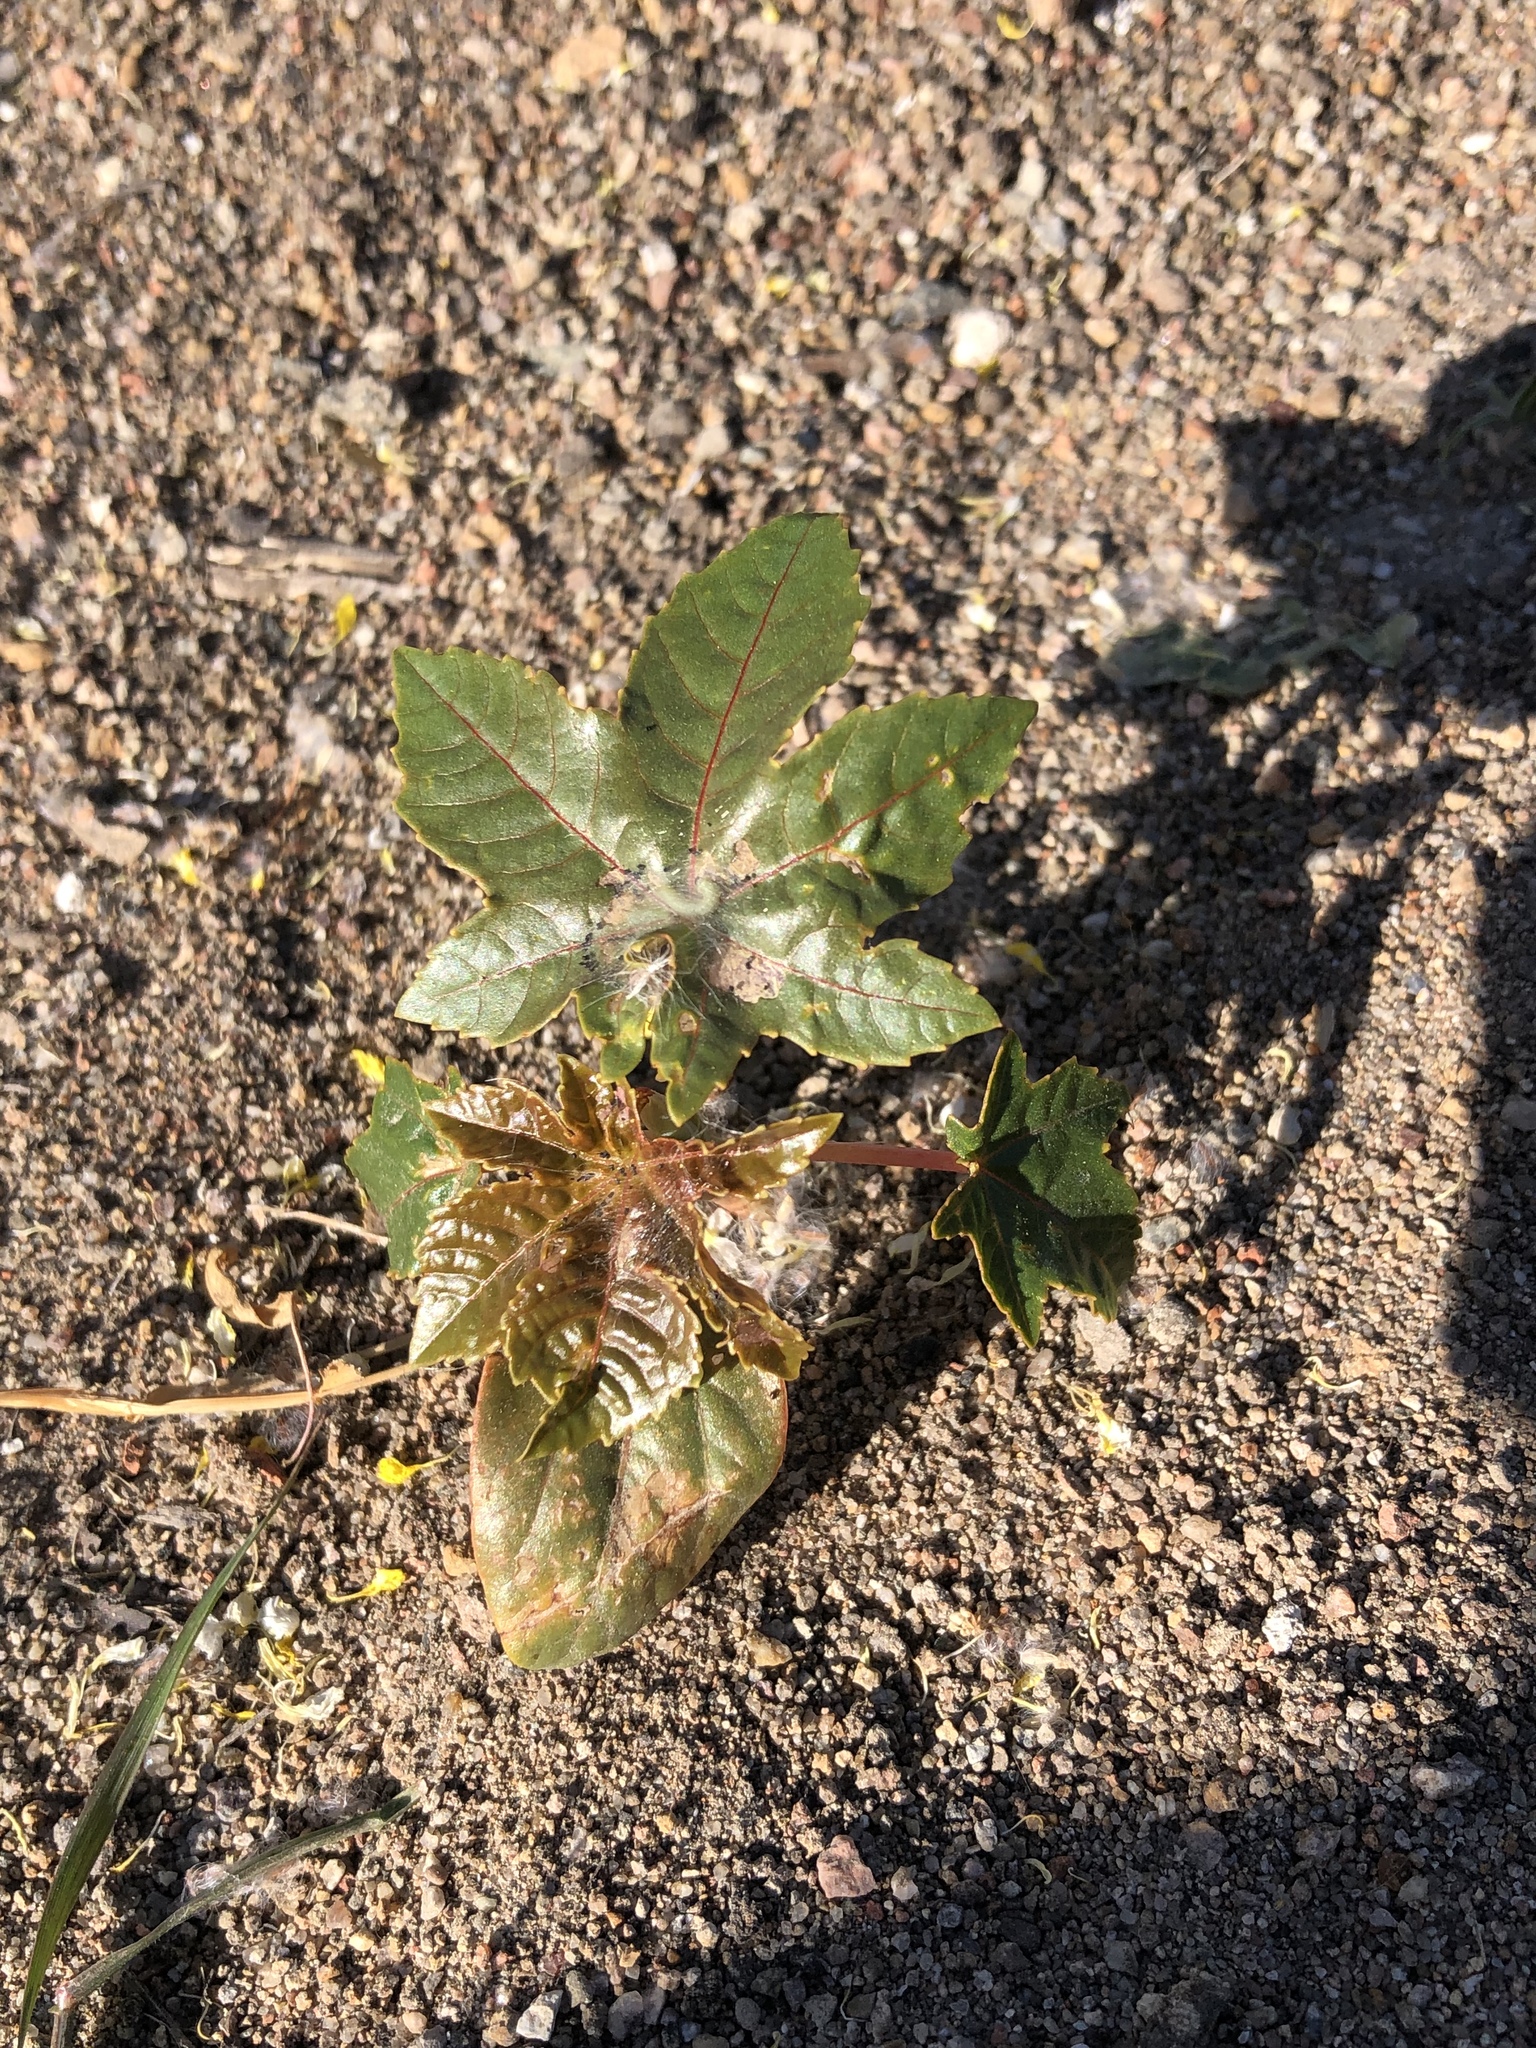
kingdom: Plantae
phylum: Tracheophyta
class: Magnoliopsida
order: Malpighiales
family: Euphorbiaceae
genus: Ricinus
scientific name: Ricinus communis
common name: Castor-oil-plant
